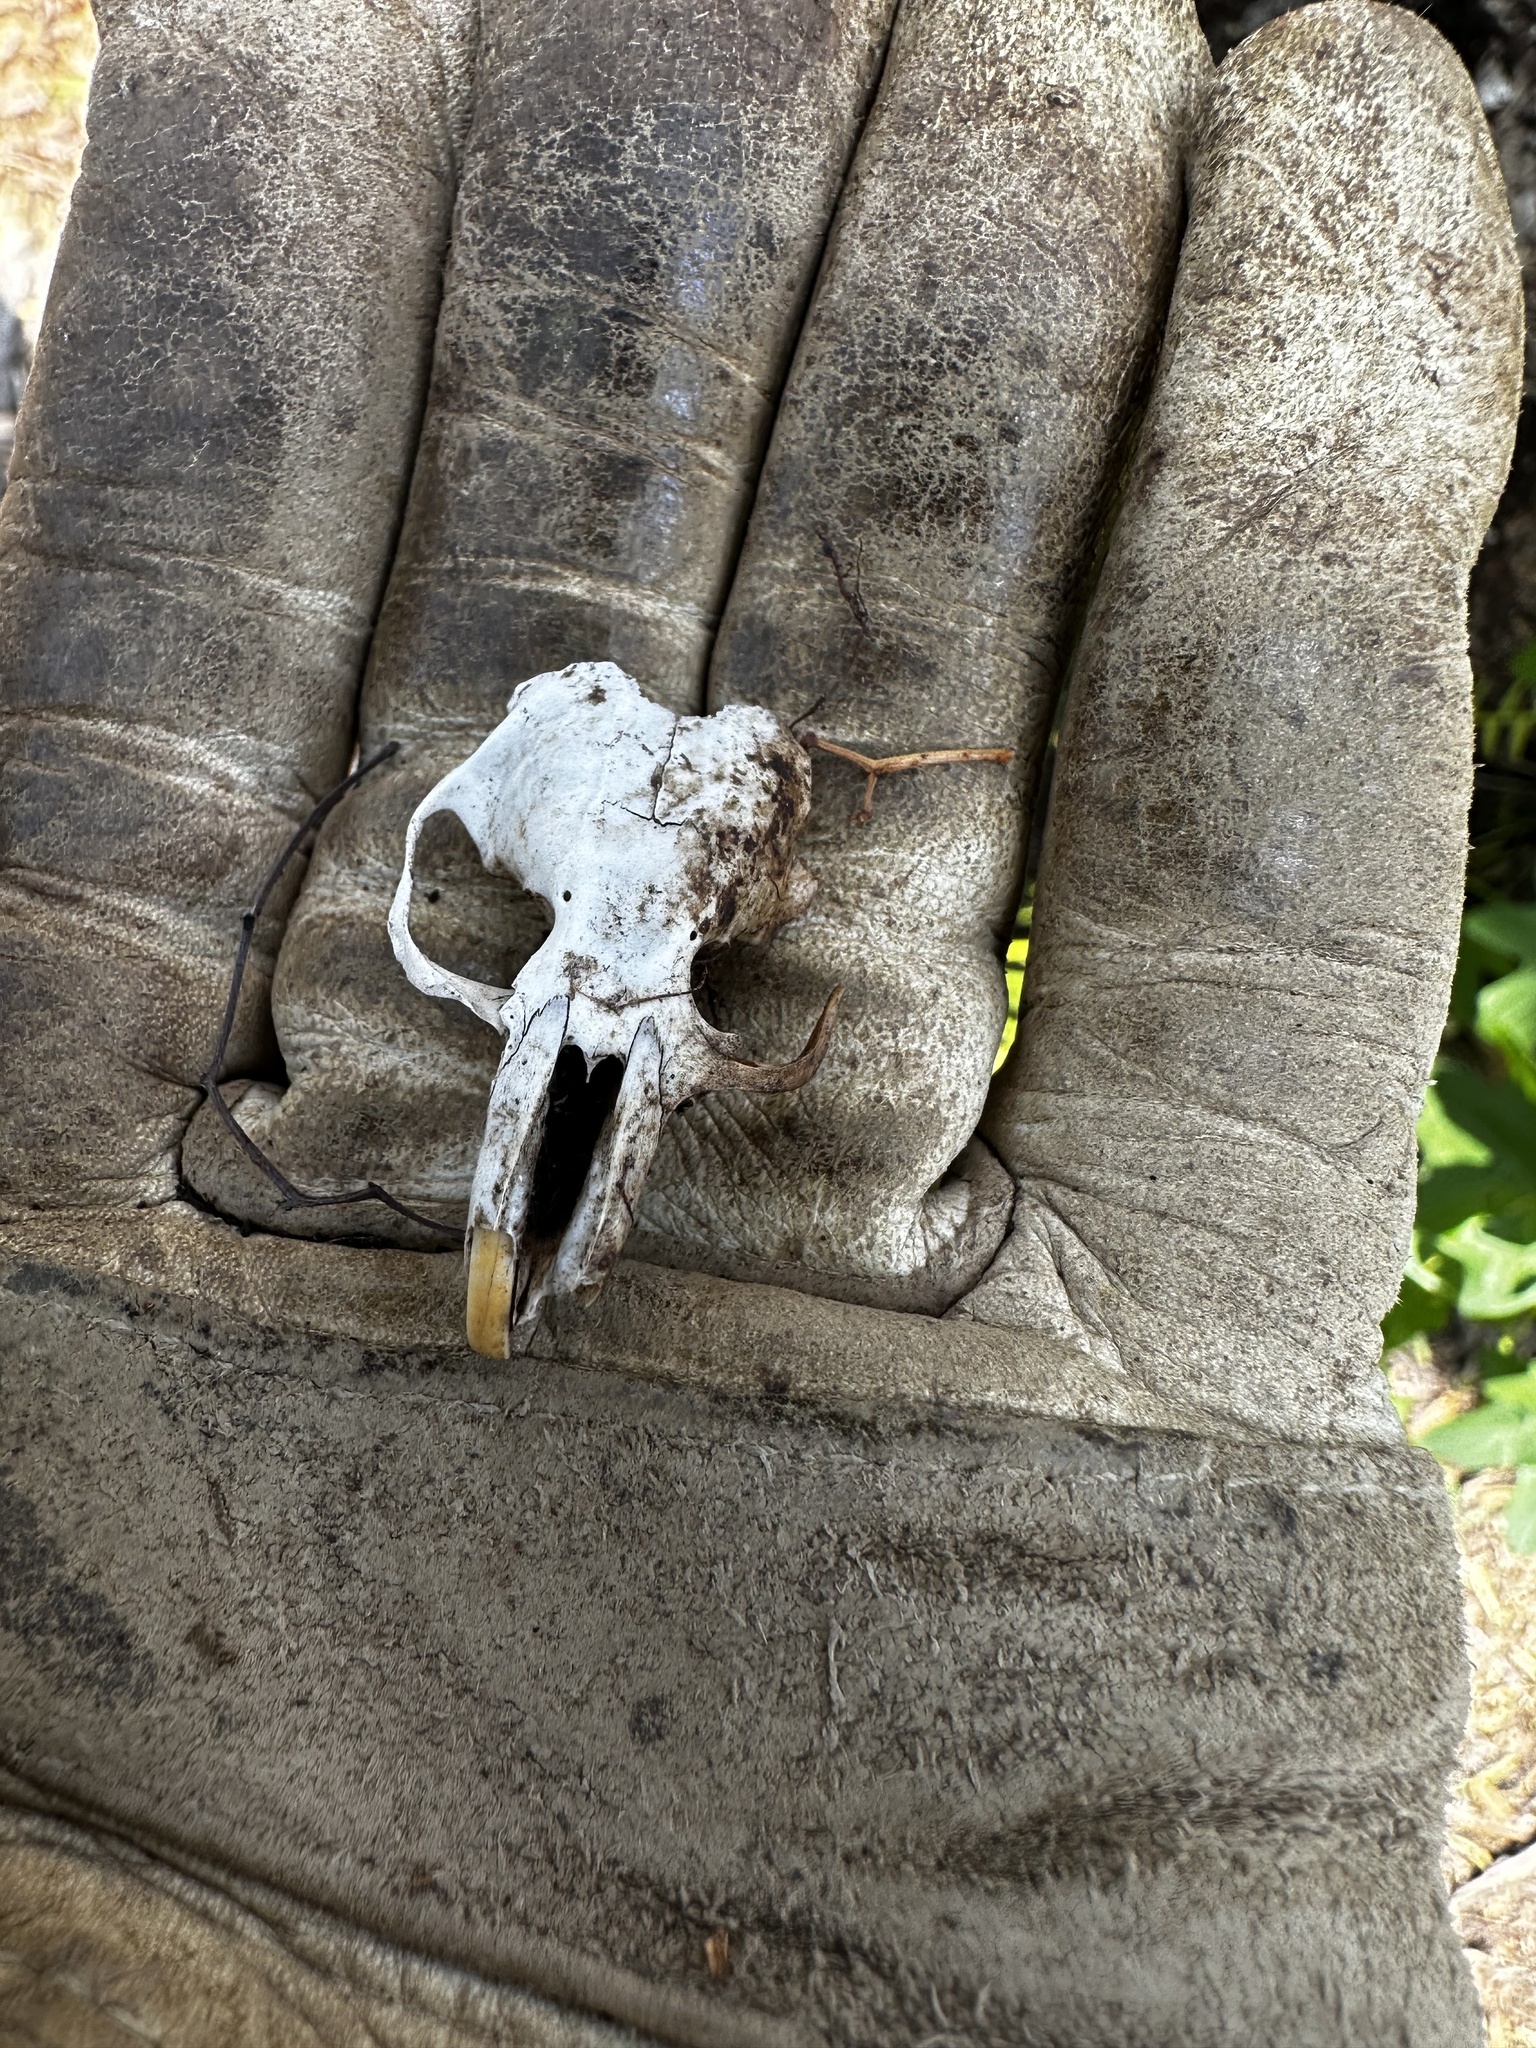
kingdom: Animalia
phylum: Chordata
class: Mammalia
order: Rodentia
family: Geomyidae
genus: Thomomys
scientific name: Thomomys bottae
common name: Botta's pocket gopher
